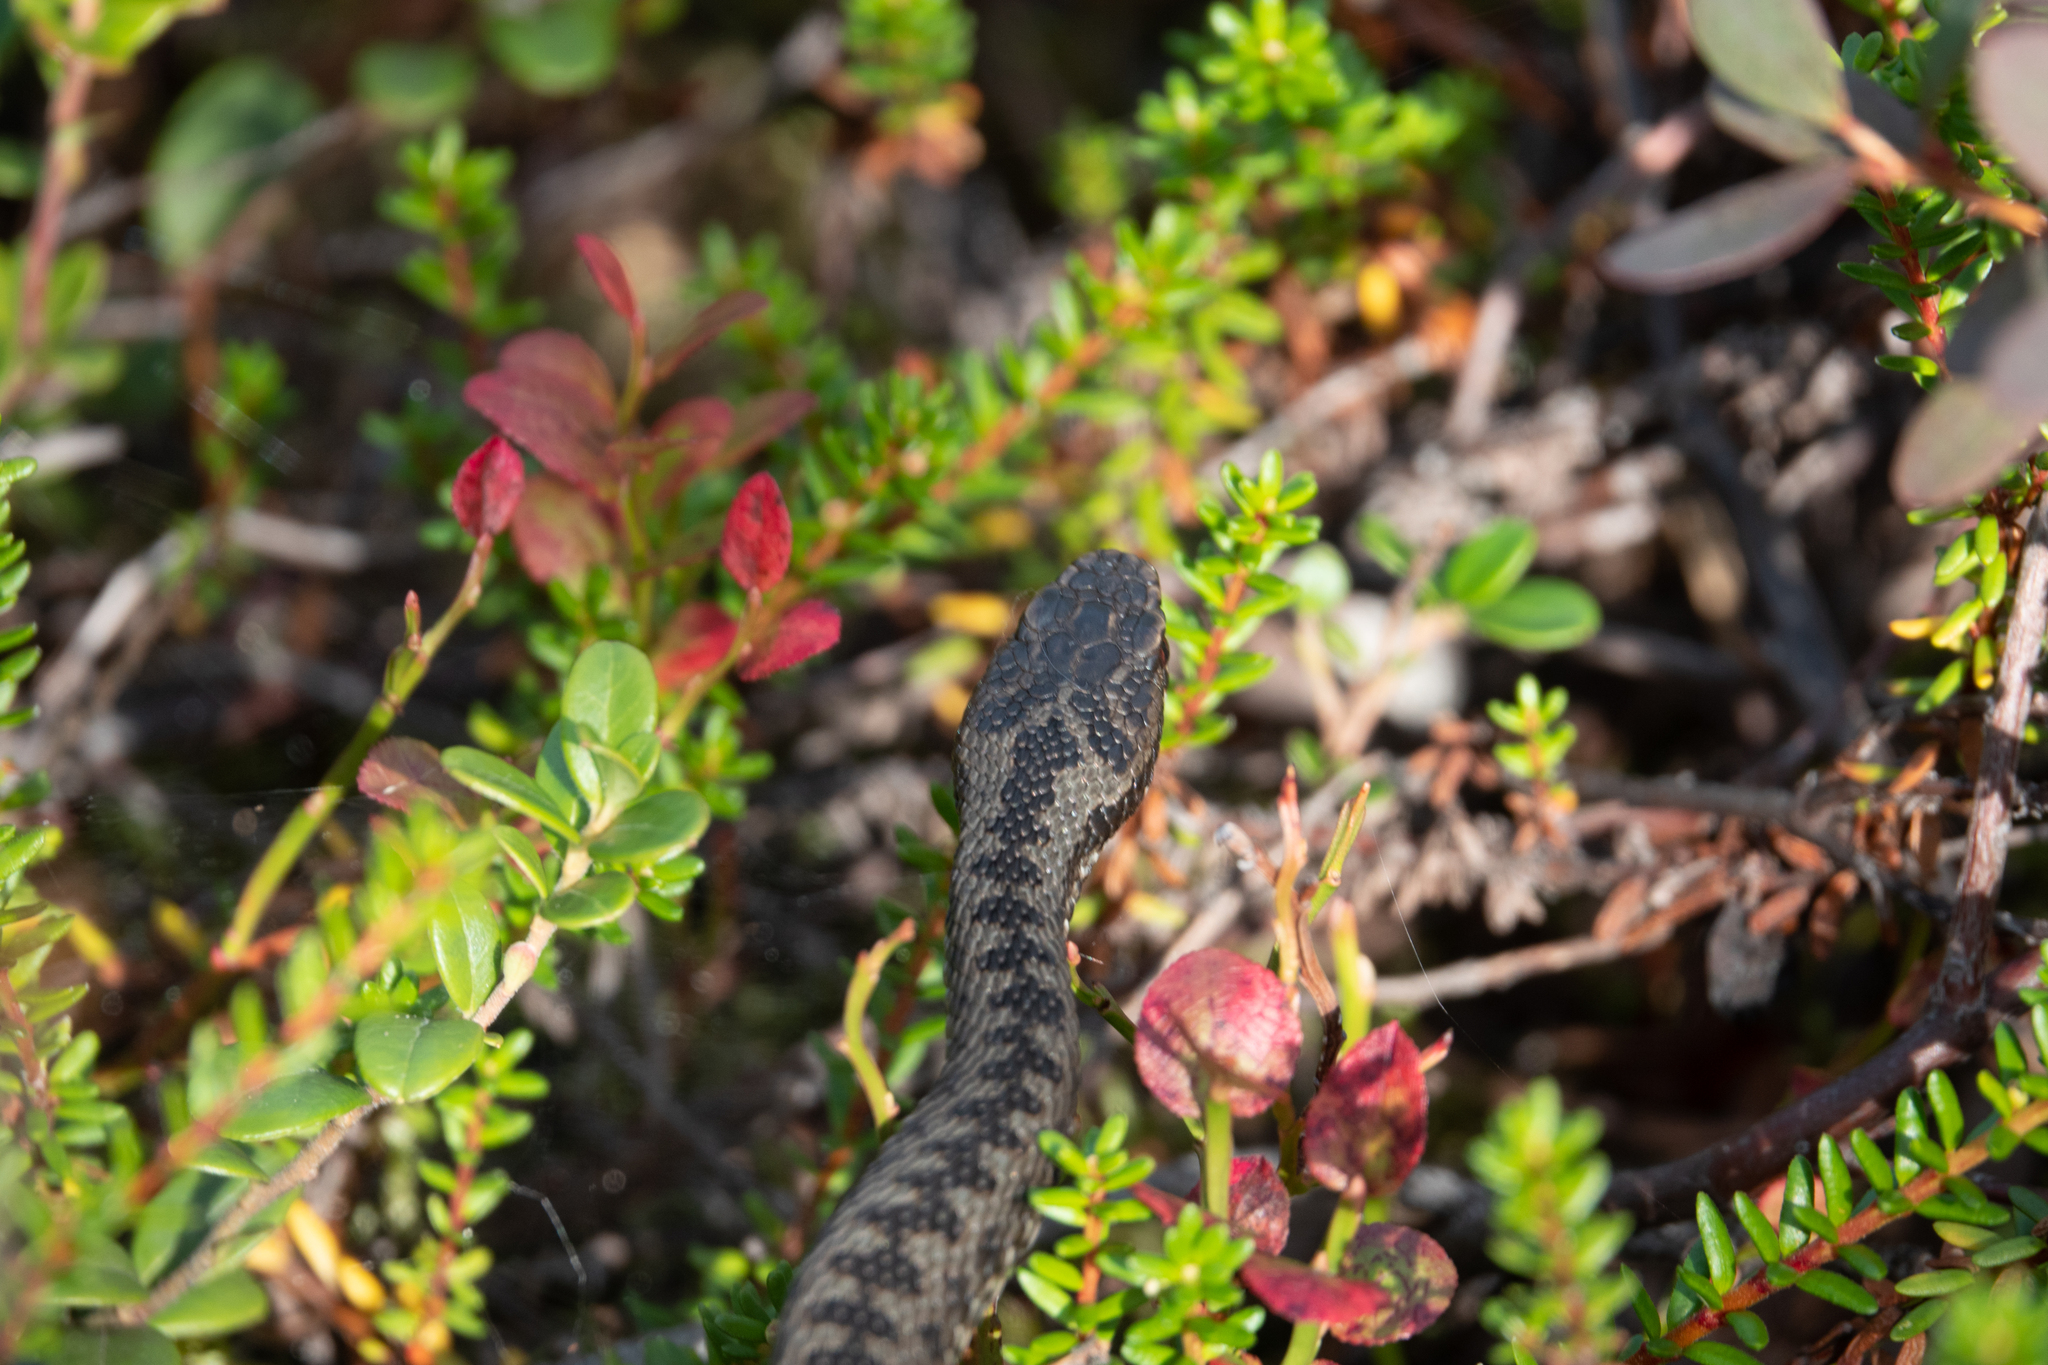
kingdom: Animalia
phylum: Chordata
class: Squamata
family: Viperidae
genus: Vipera
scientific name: Vipera berus
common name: Adder
